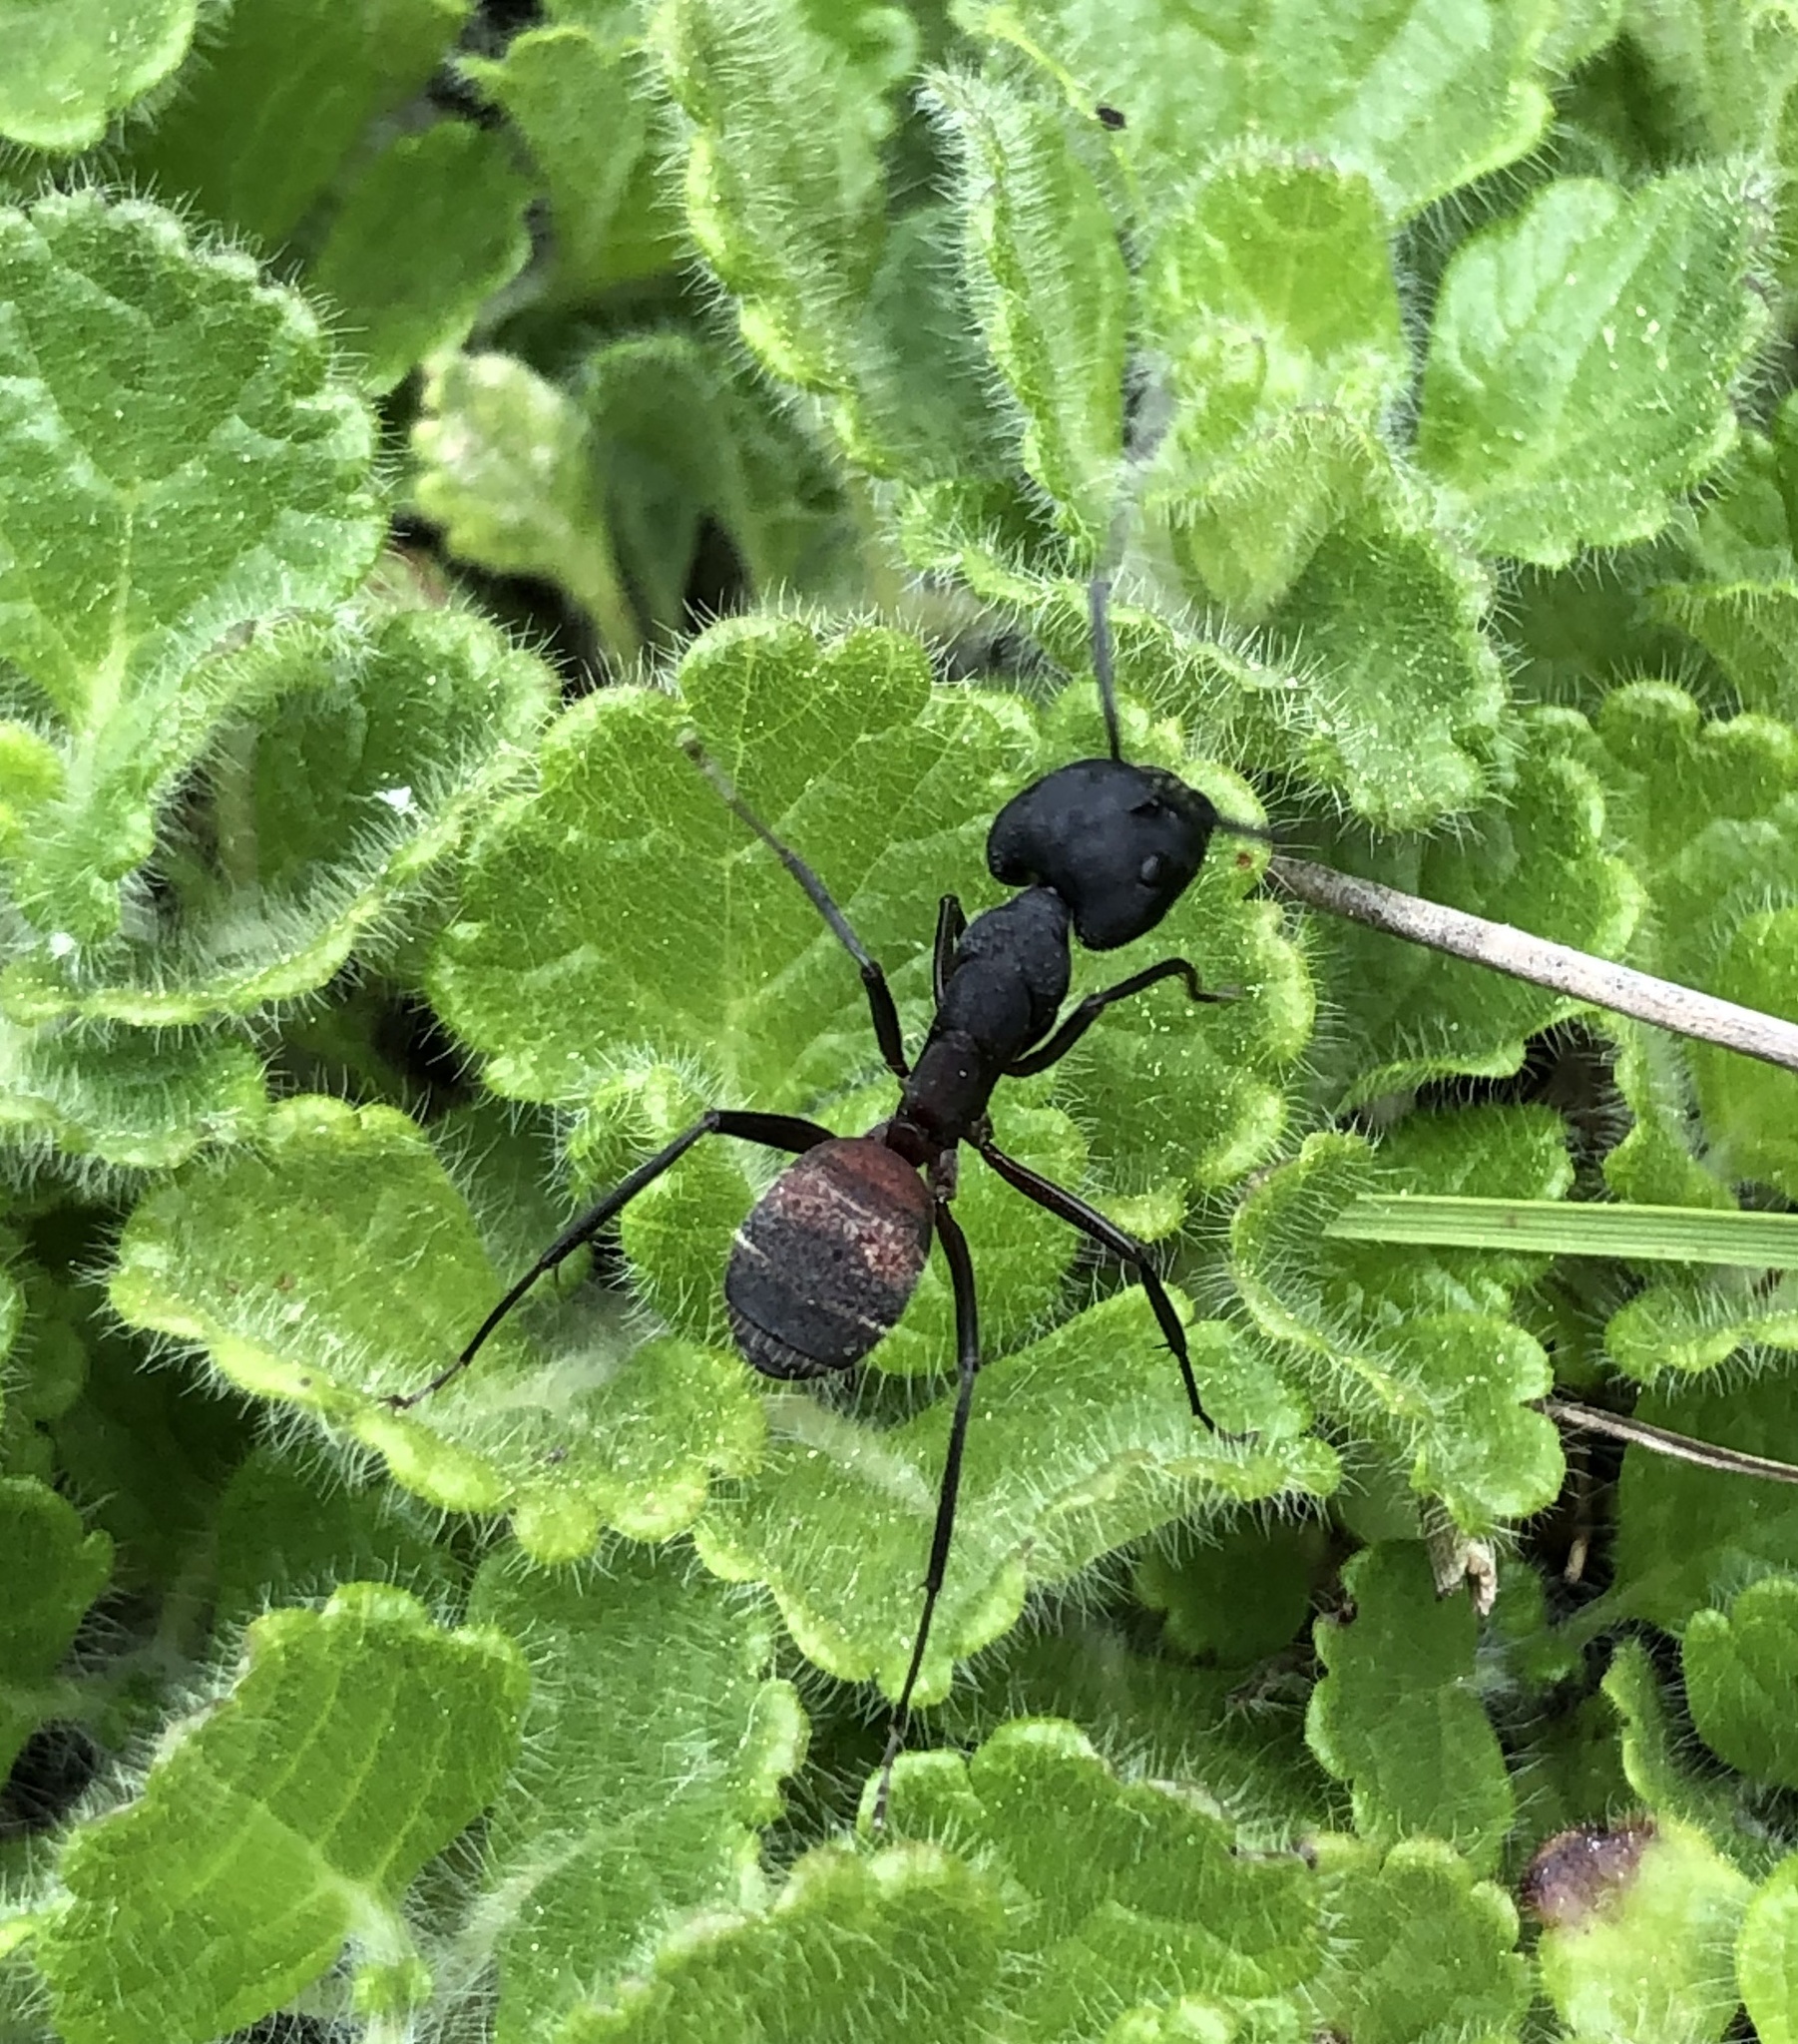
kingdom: Animalia
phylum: Arthropoda
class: Insecta
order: Hymenoptera
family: Formicidae
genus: Camponotus
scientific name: Camponotus cruentatus
